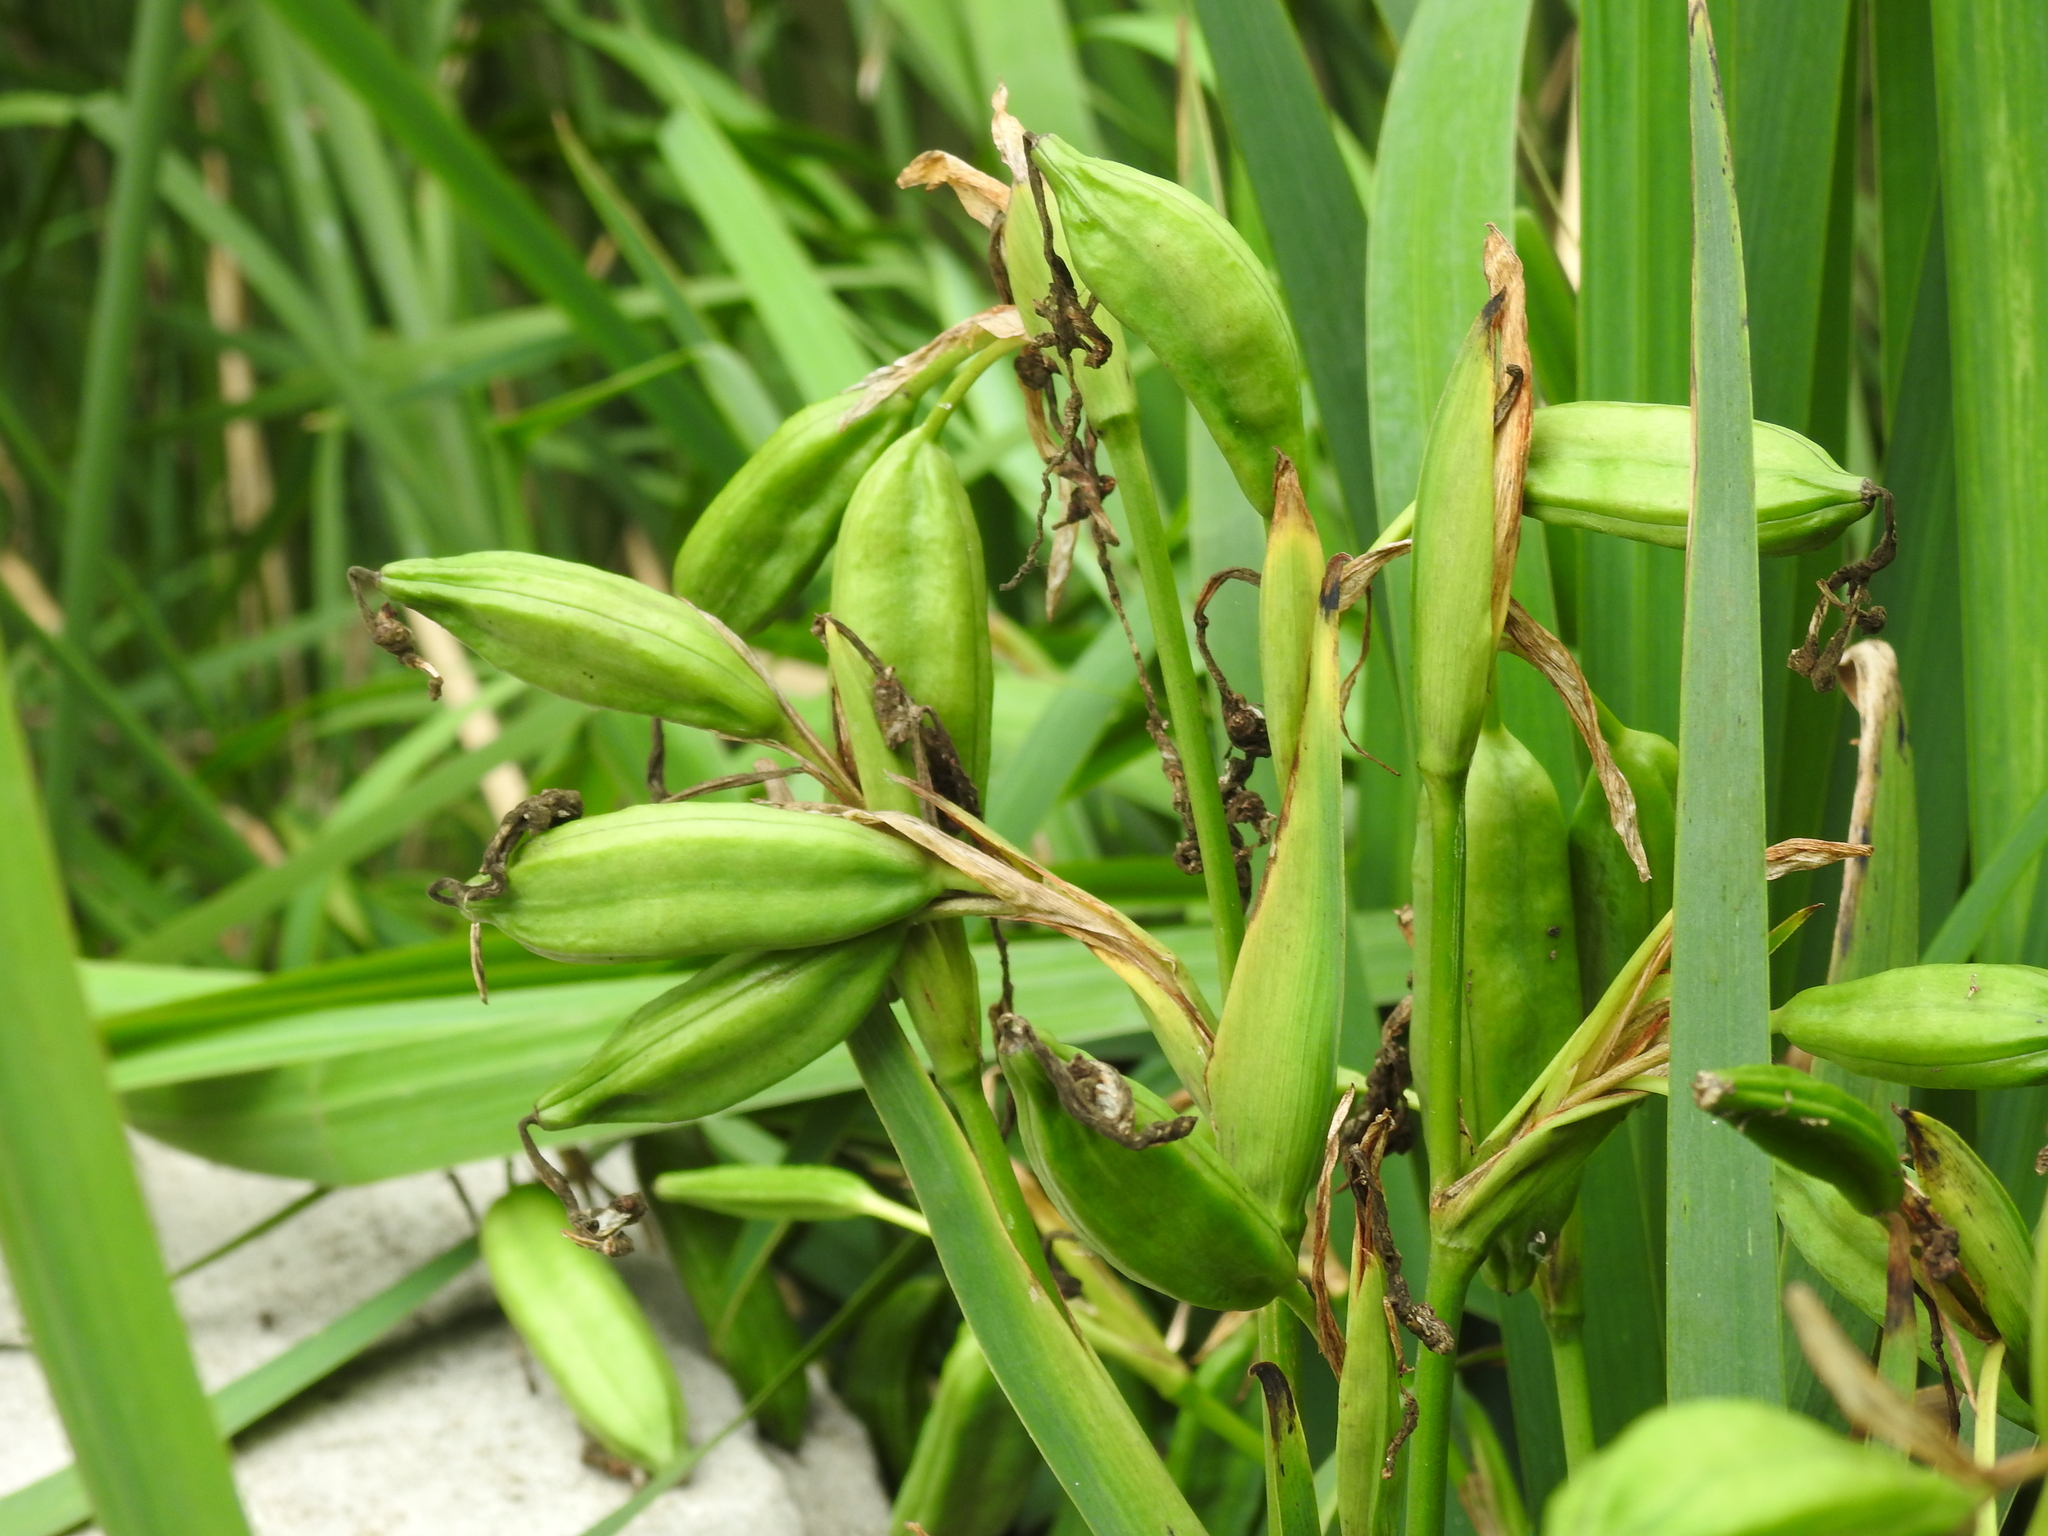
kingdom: Plantae
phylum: Tracheophyta
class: Liliopsida
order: Asparagales
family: Iridaceae
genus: Iris
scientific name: Iris pseudacorus
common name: Yellow flag
